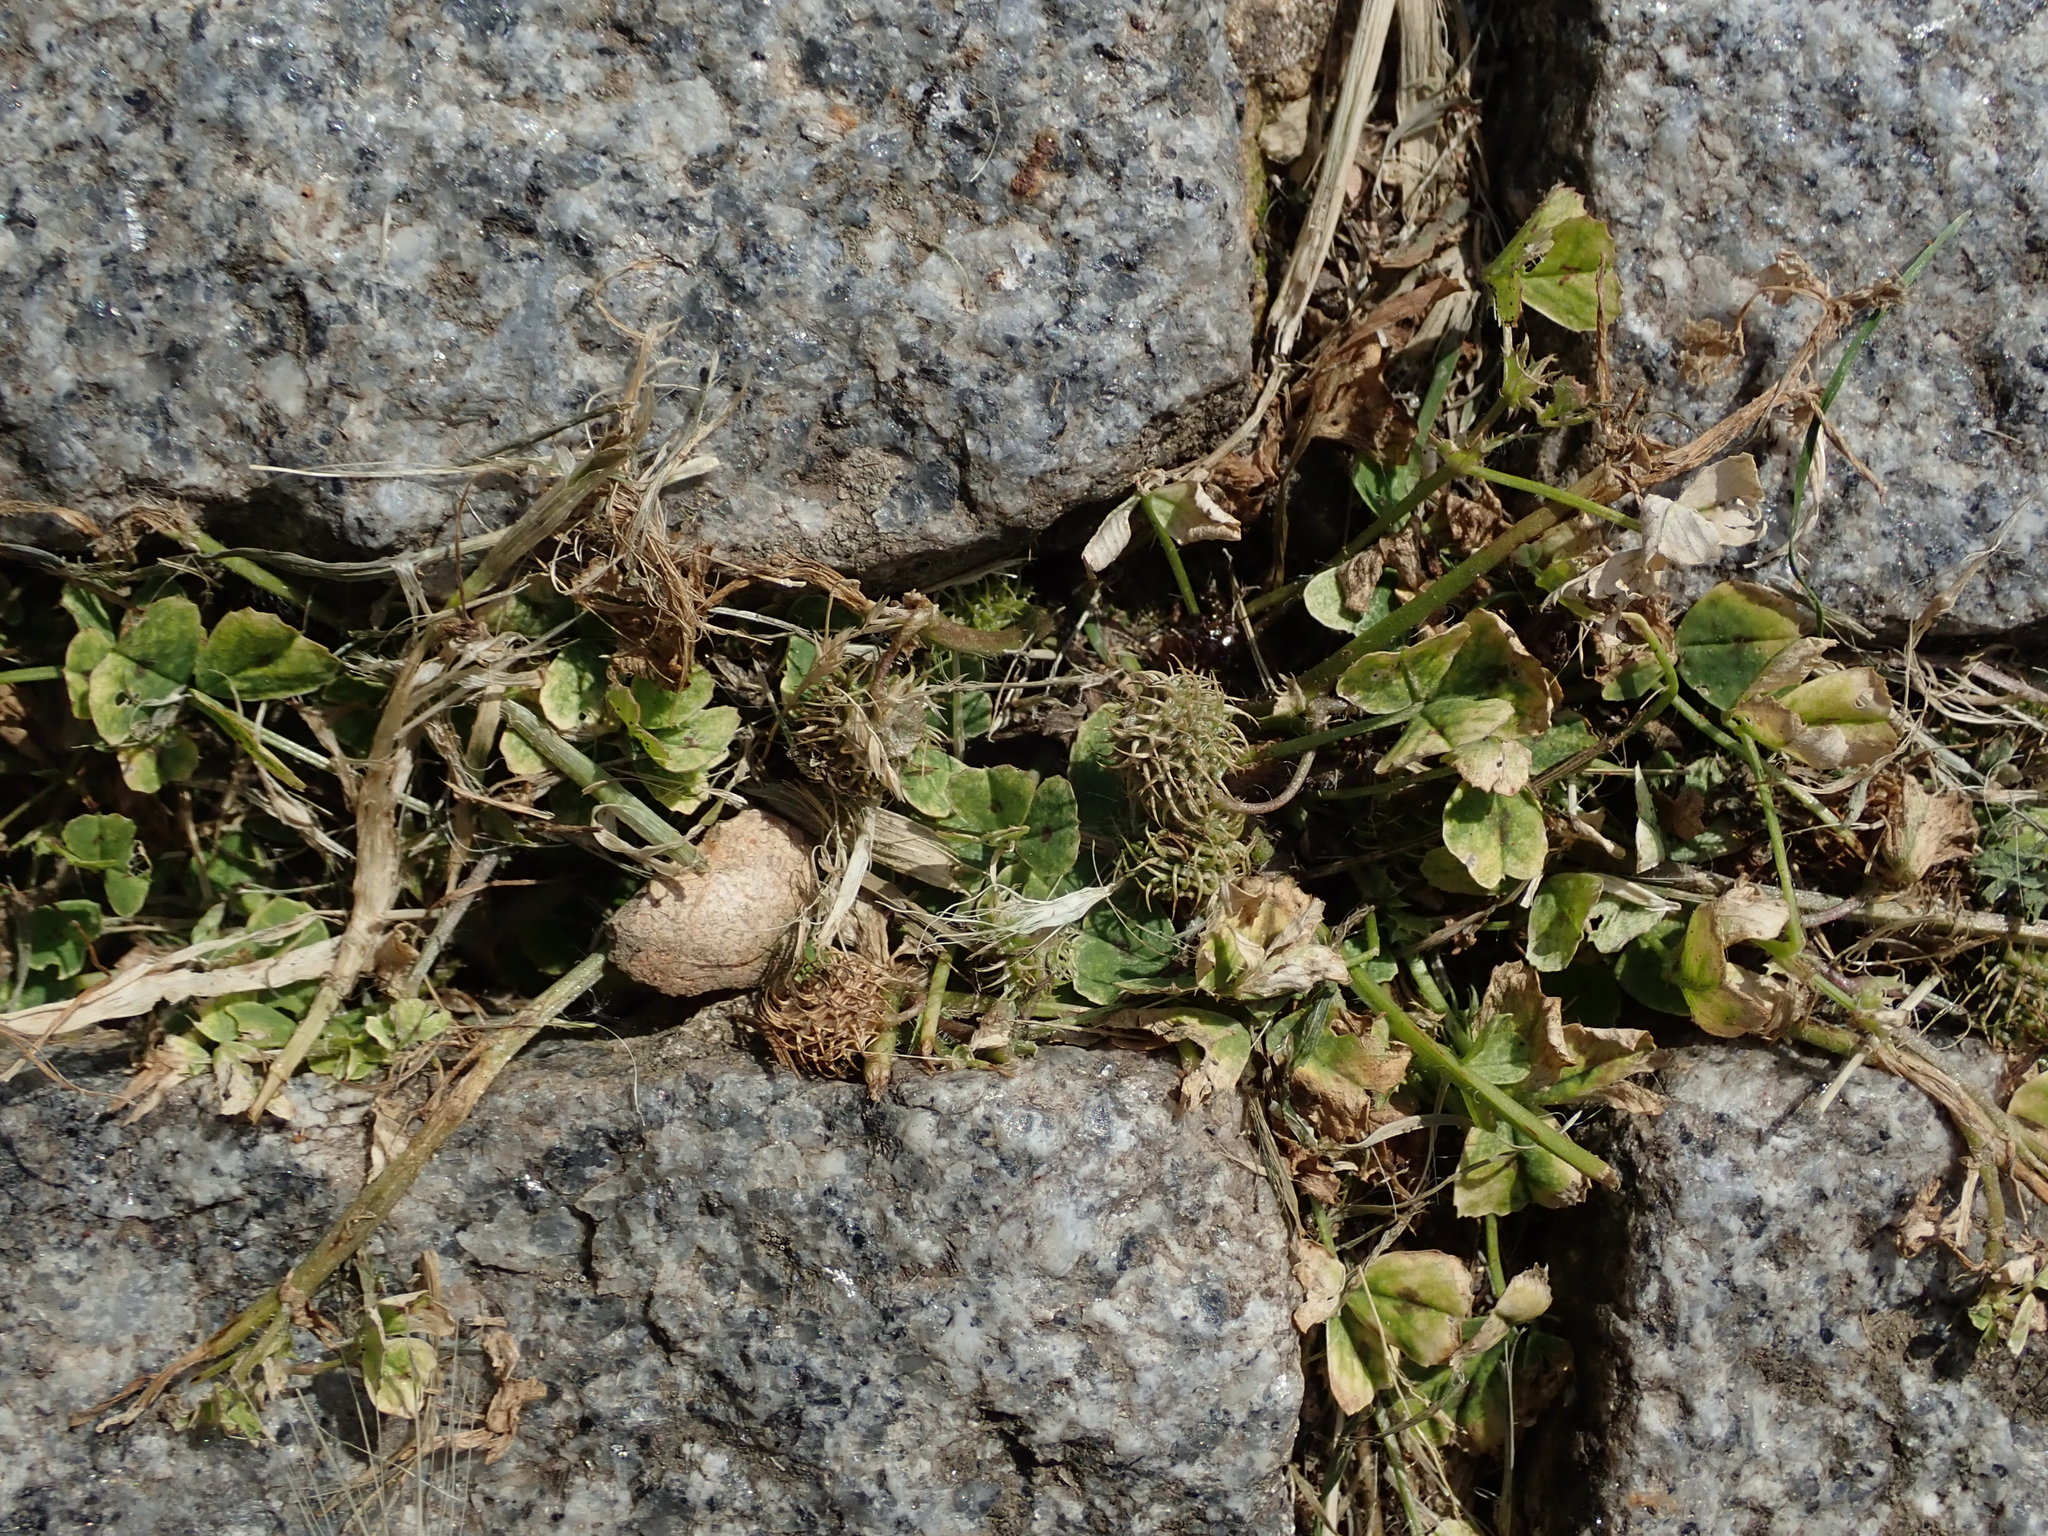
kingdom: Plantae
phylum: Tracheophyta
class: Magnoliopsida
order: Fabales
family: Fabaceae
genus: Medicago
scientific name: Medicago arabica
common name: Spotted medick
